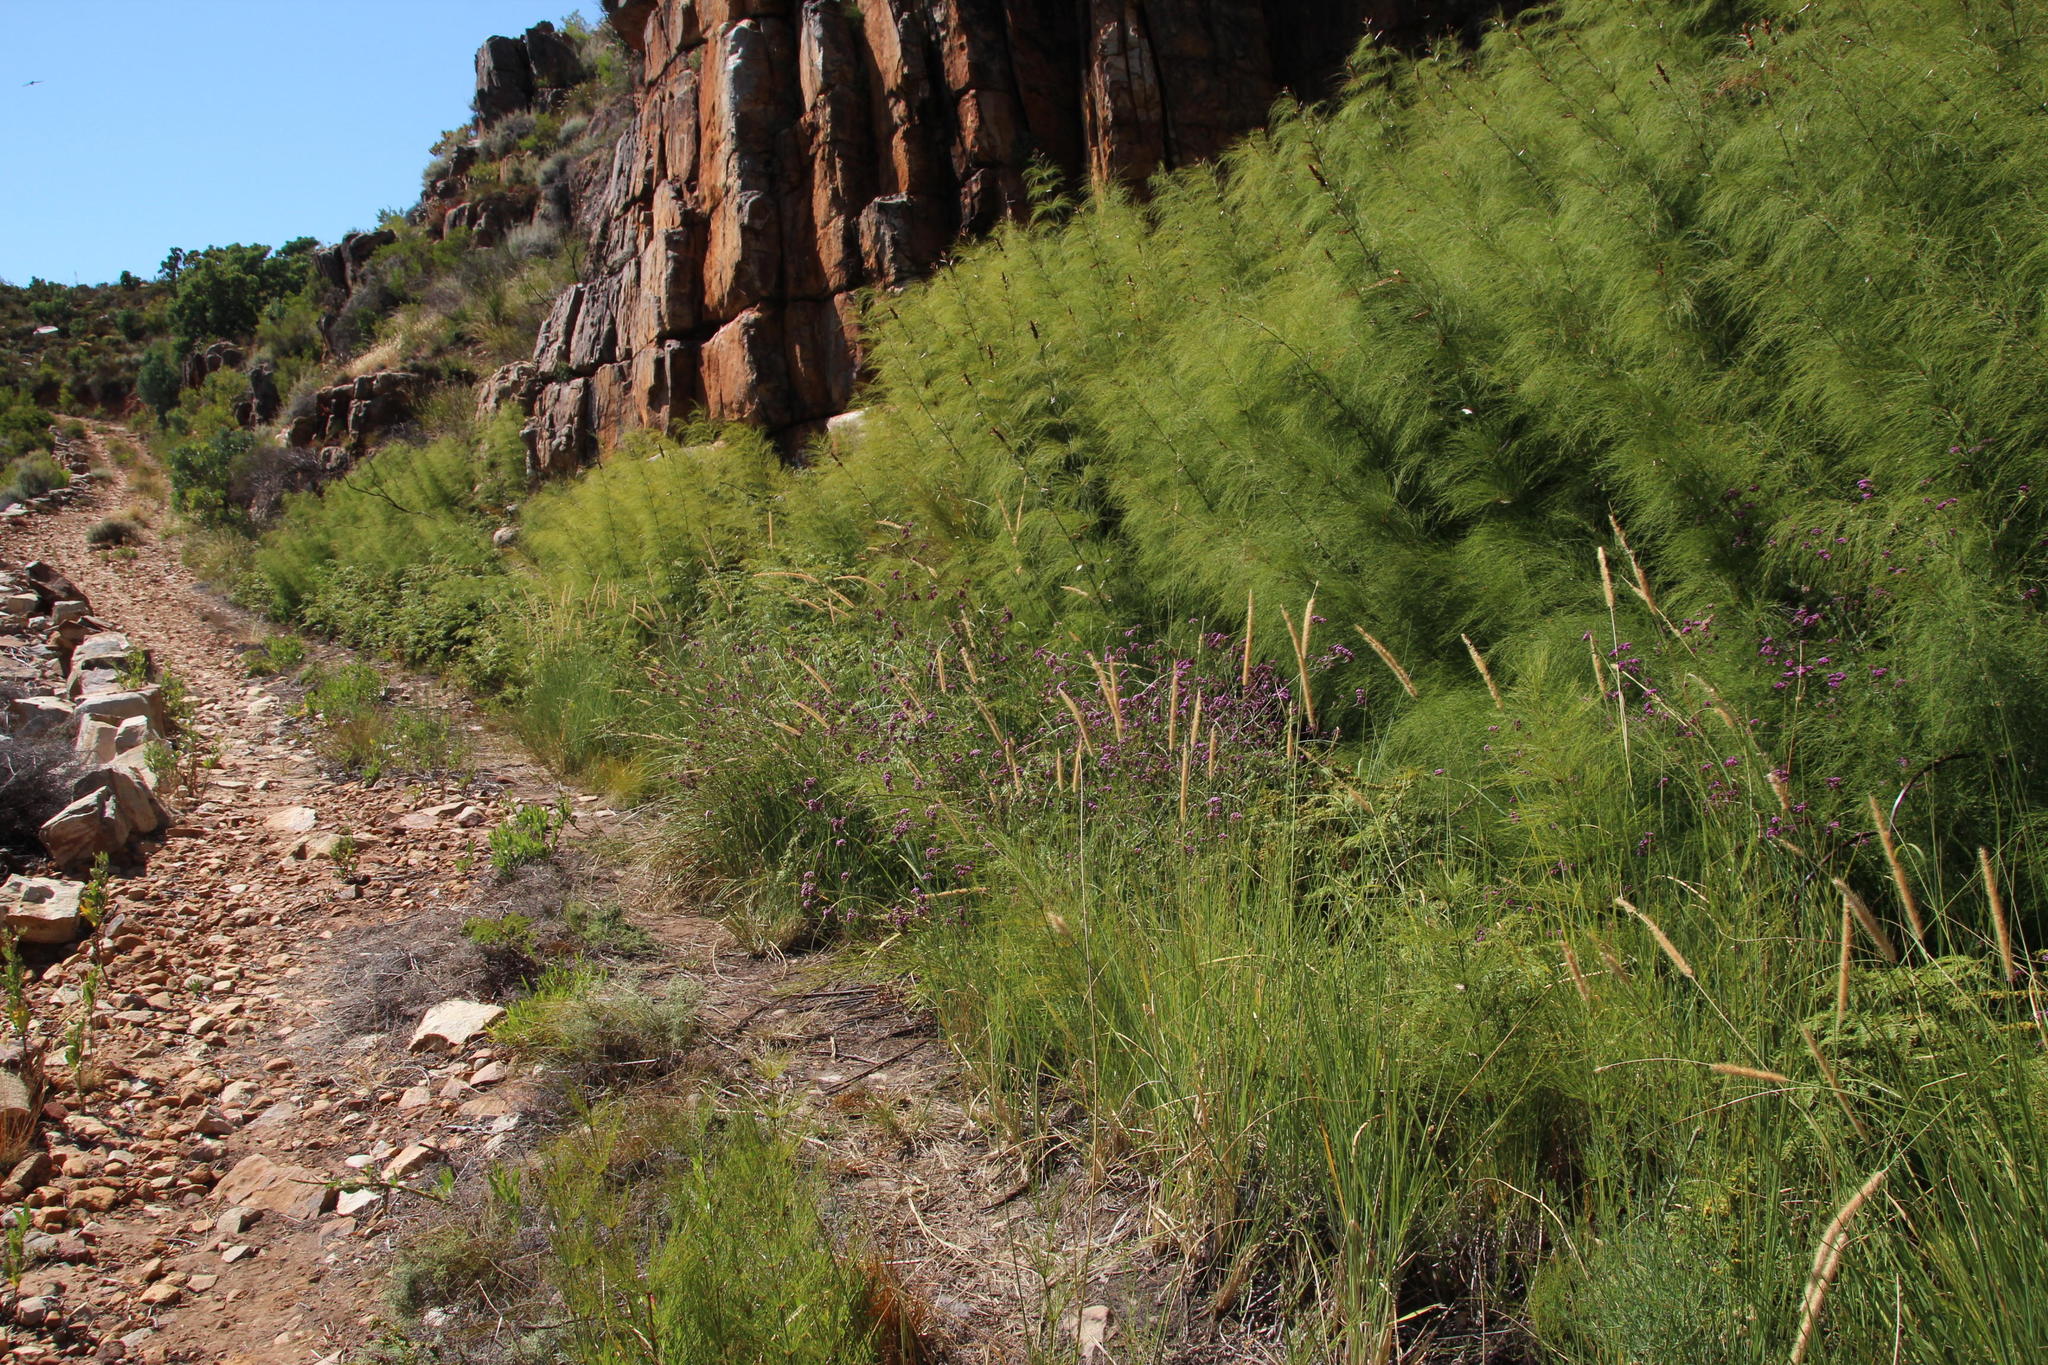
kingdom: Plantae
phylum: Tracheophyta
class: Liliopsida
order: Poales
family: Restionaceae
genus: Elegia
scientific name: Elegia capensis
